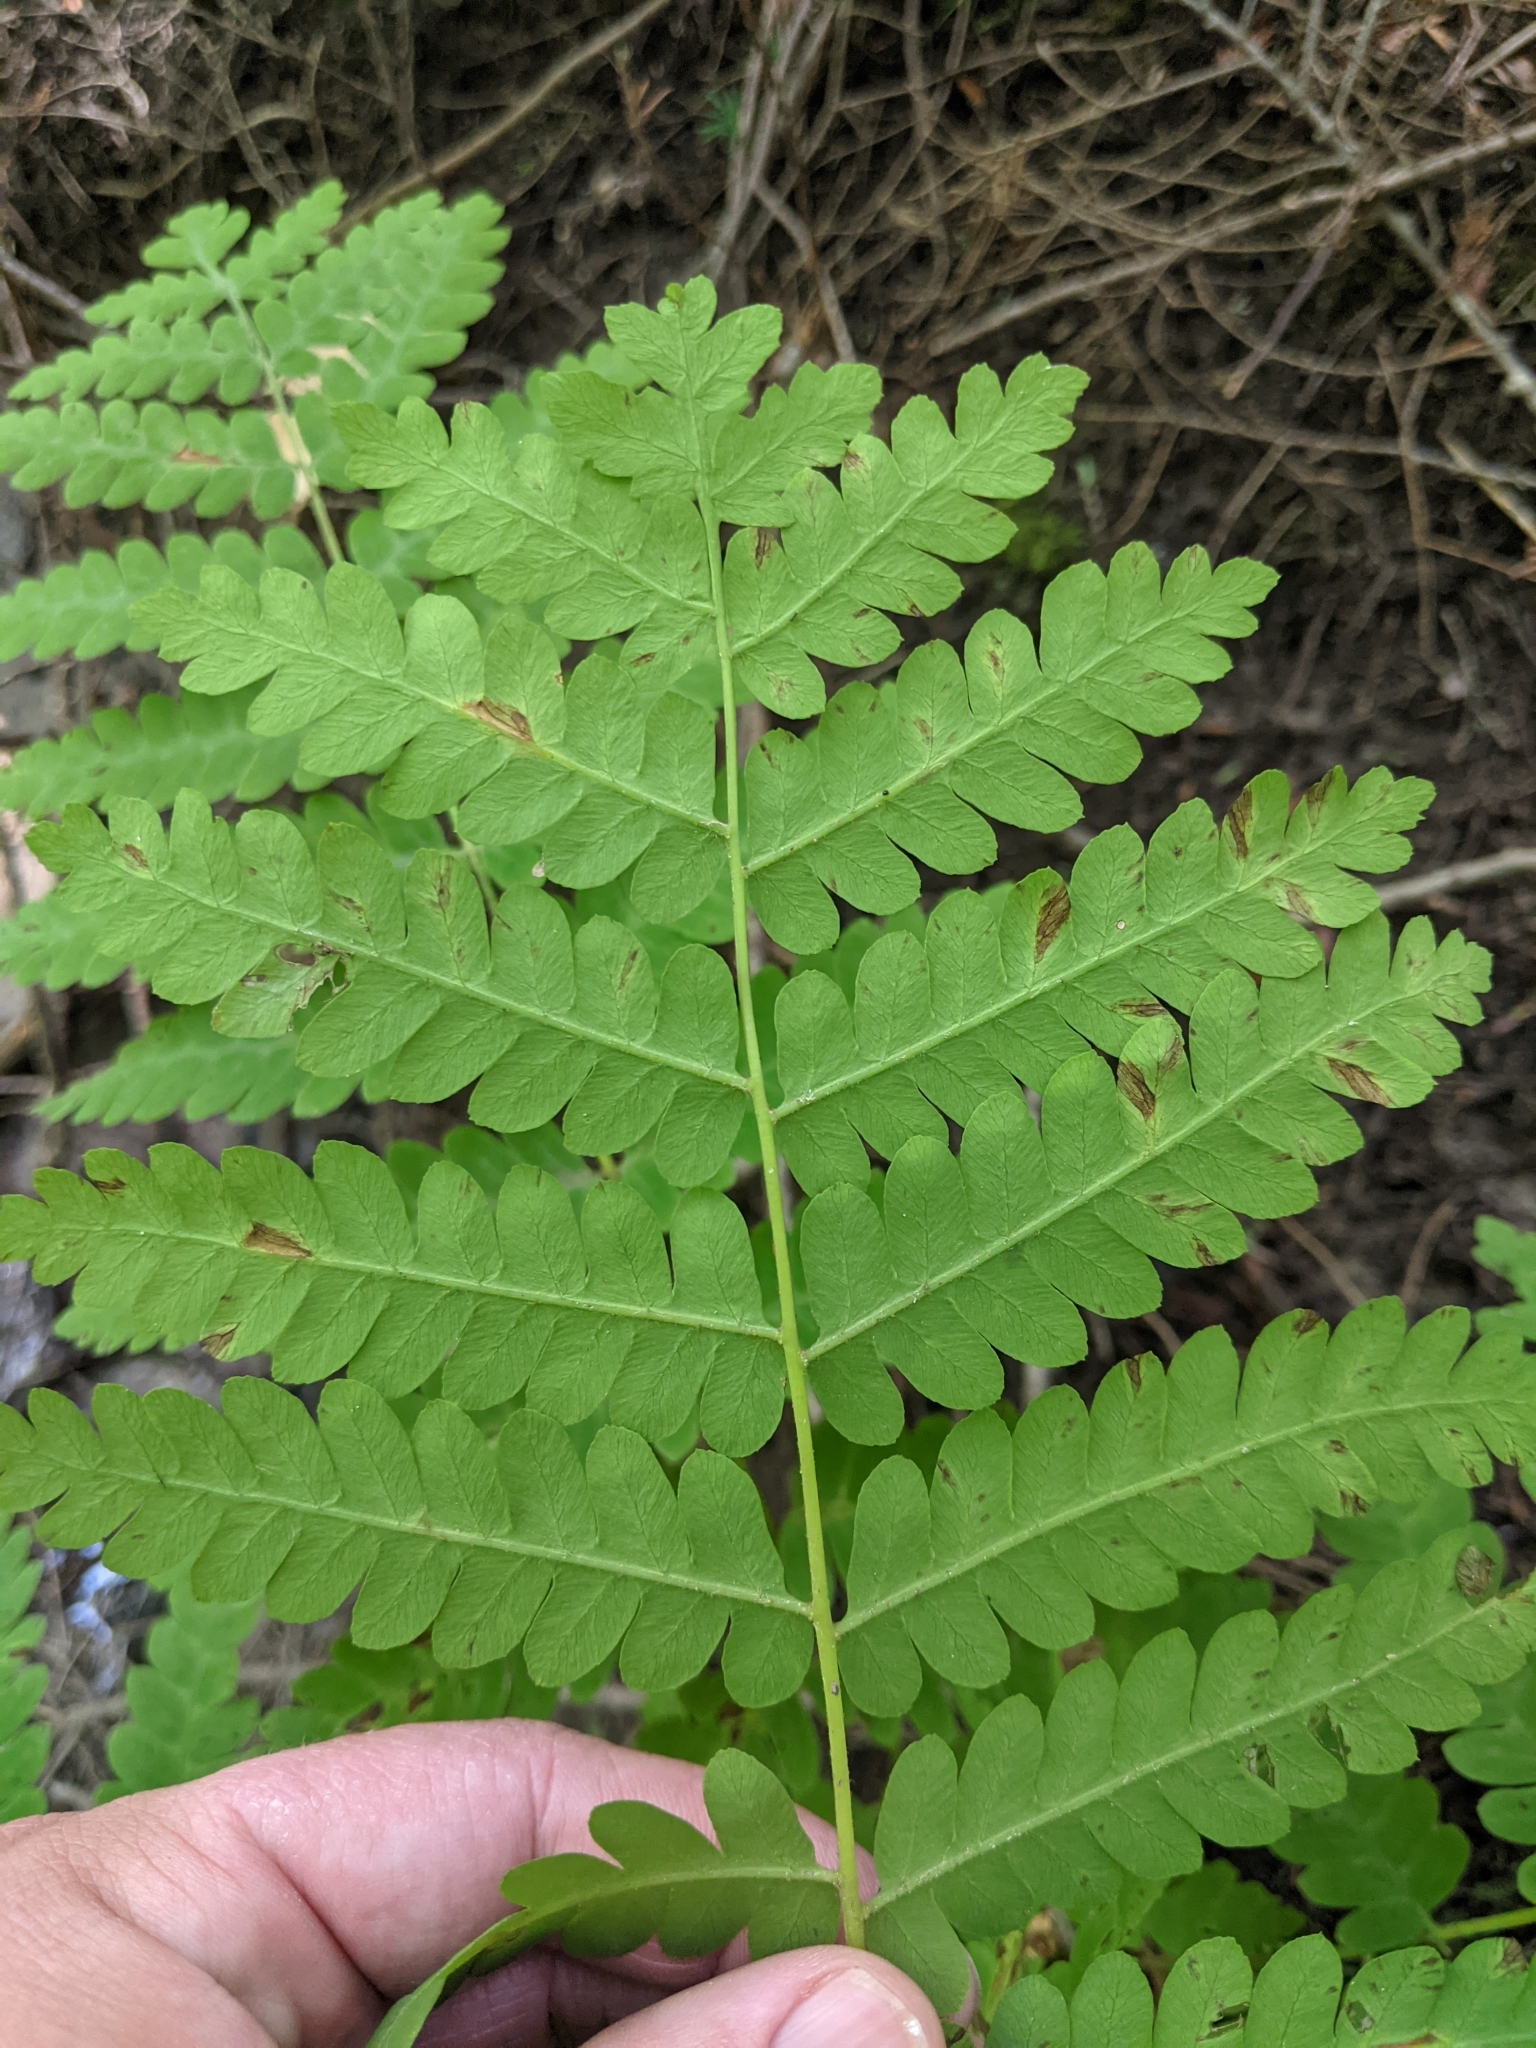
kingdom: Plantae
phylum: Tracheophyta
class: Polypodiopsida
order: Osmundales
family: Osmundaceae
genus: Claytosmunda
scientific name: Claytosmunda claytoniana
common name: Clayton's fern
